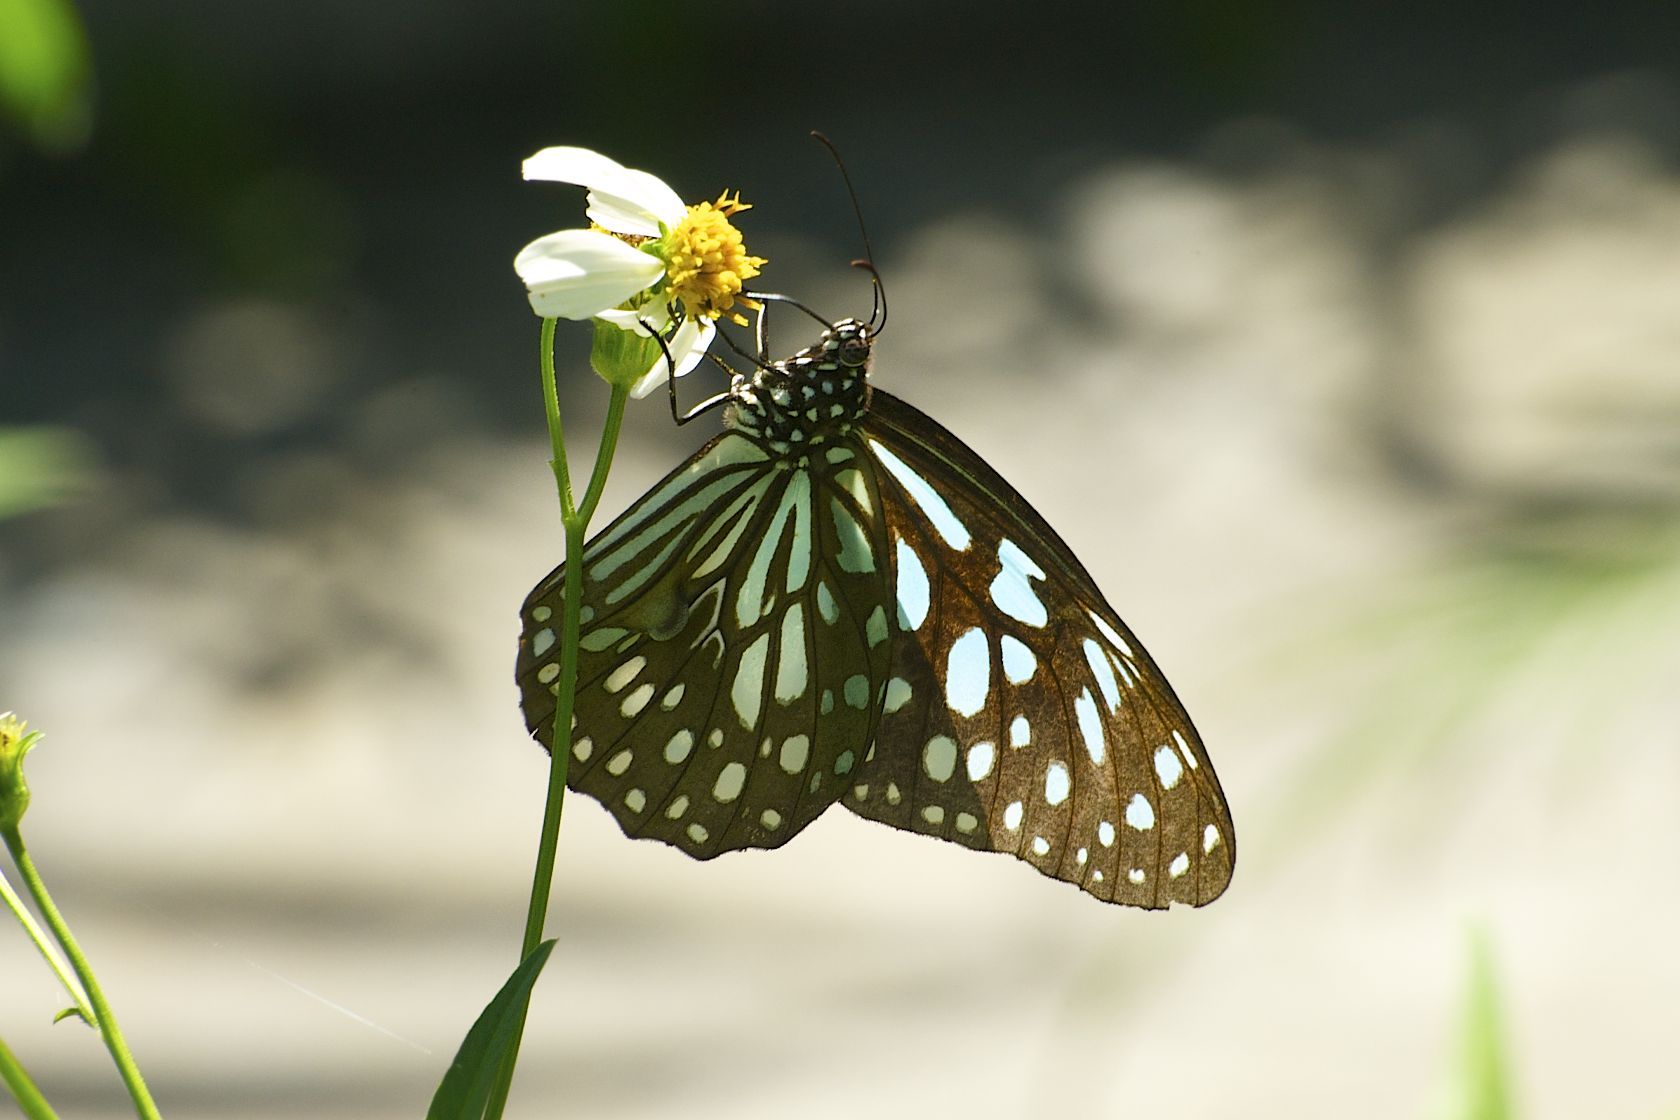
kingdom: Animalia
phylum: Arthropoda
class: Insecta
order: Lepidoptera
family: Nymphalidae
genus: Tirumala
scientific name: Tirumala limniace
